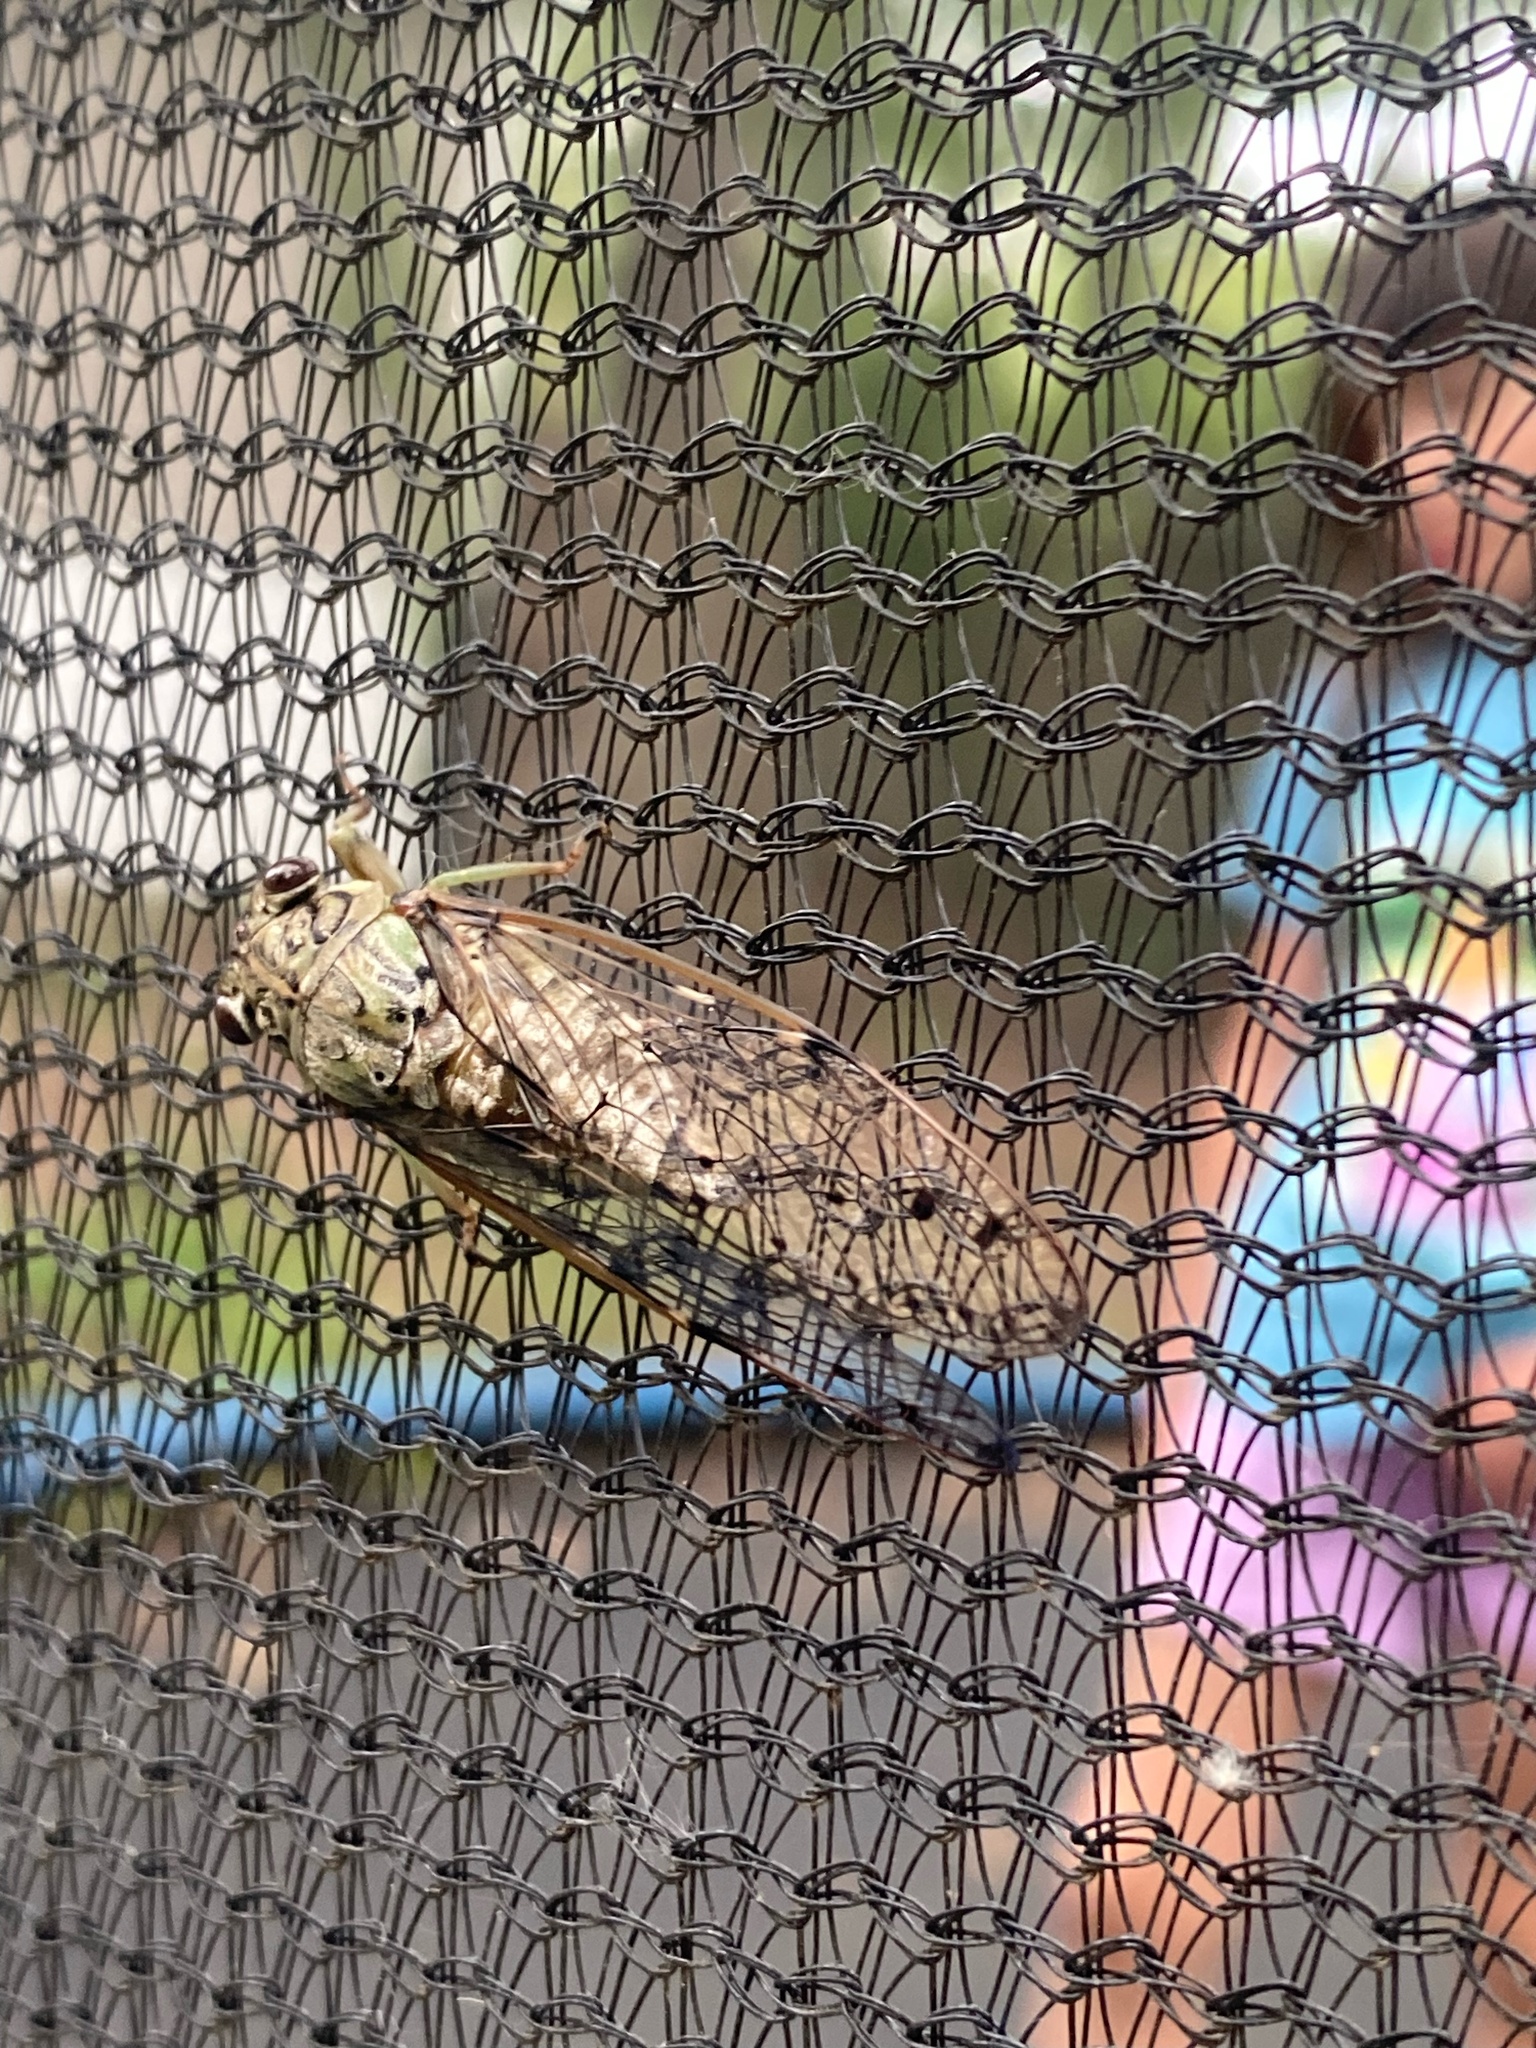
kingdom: Animalia
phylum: Arthropoda
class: Insecta
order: Hemiptera
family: Cicadidae
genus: Neocicada
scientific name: Neocicada hieroglyphica
